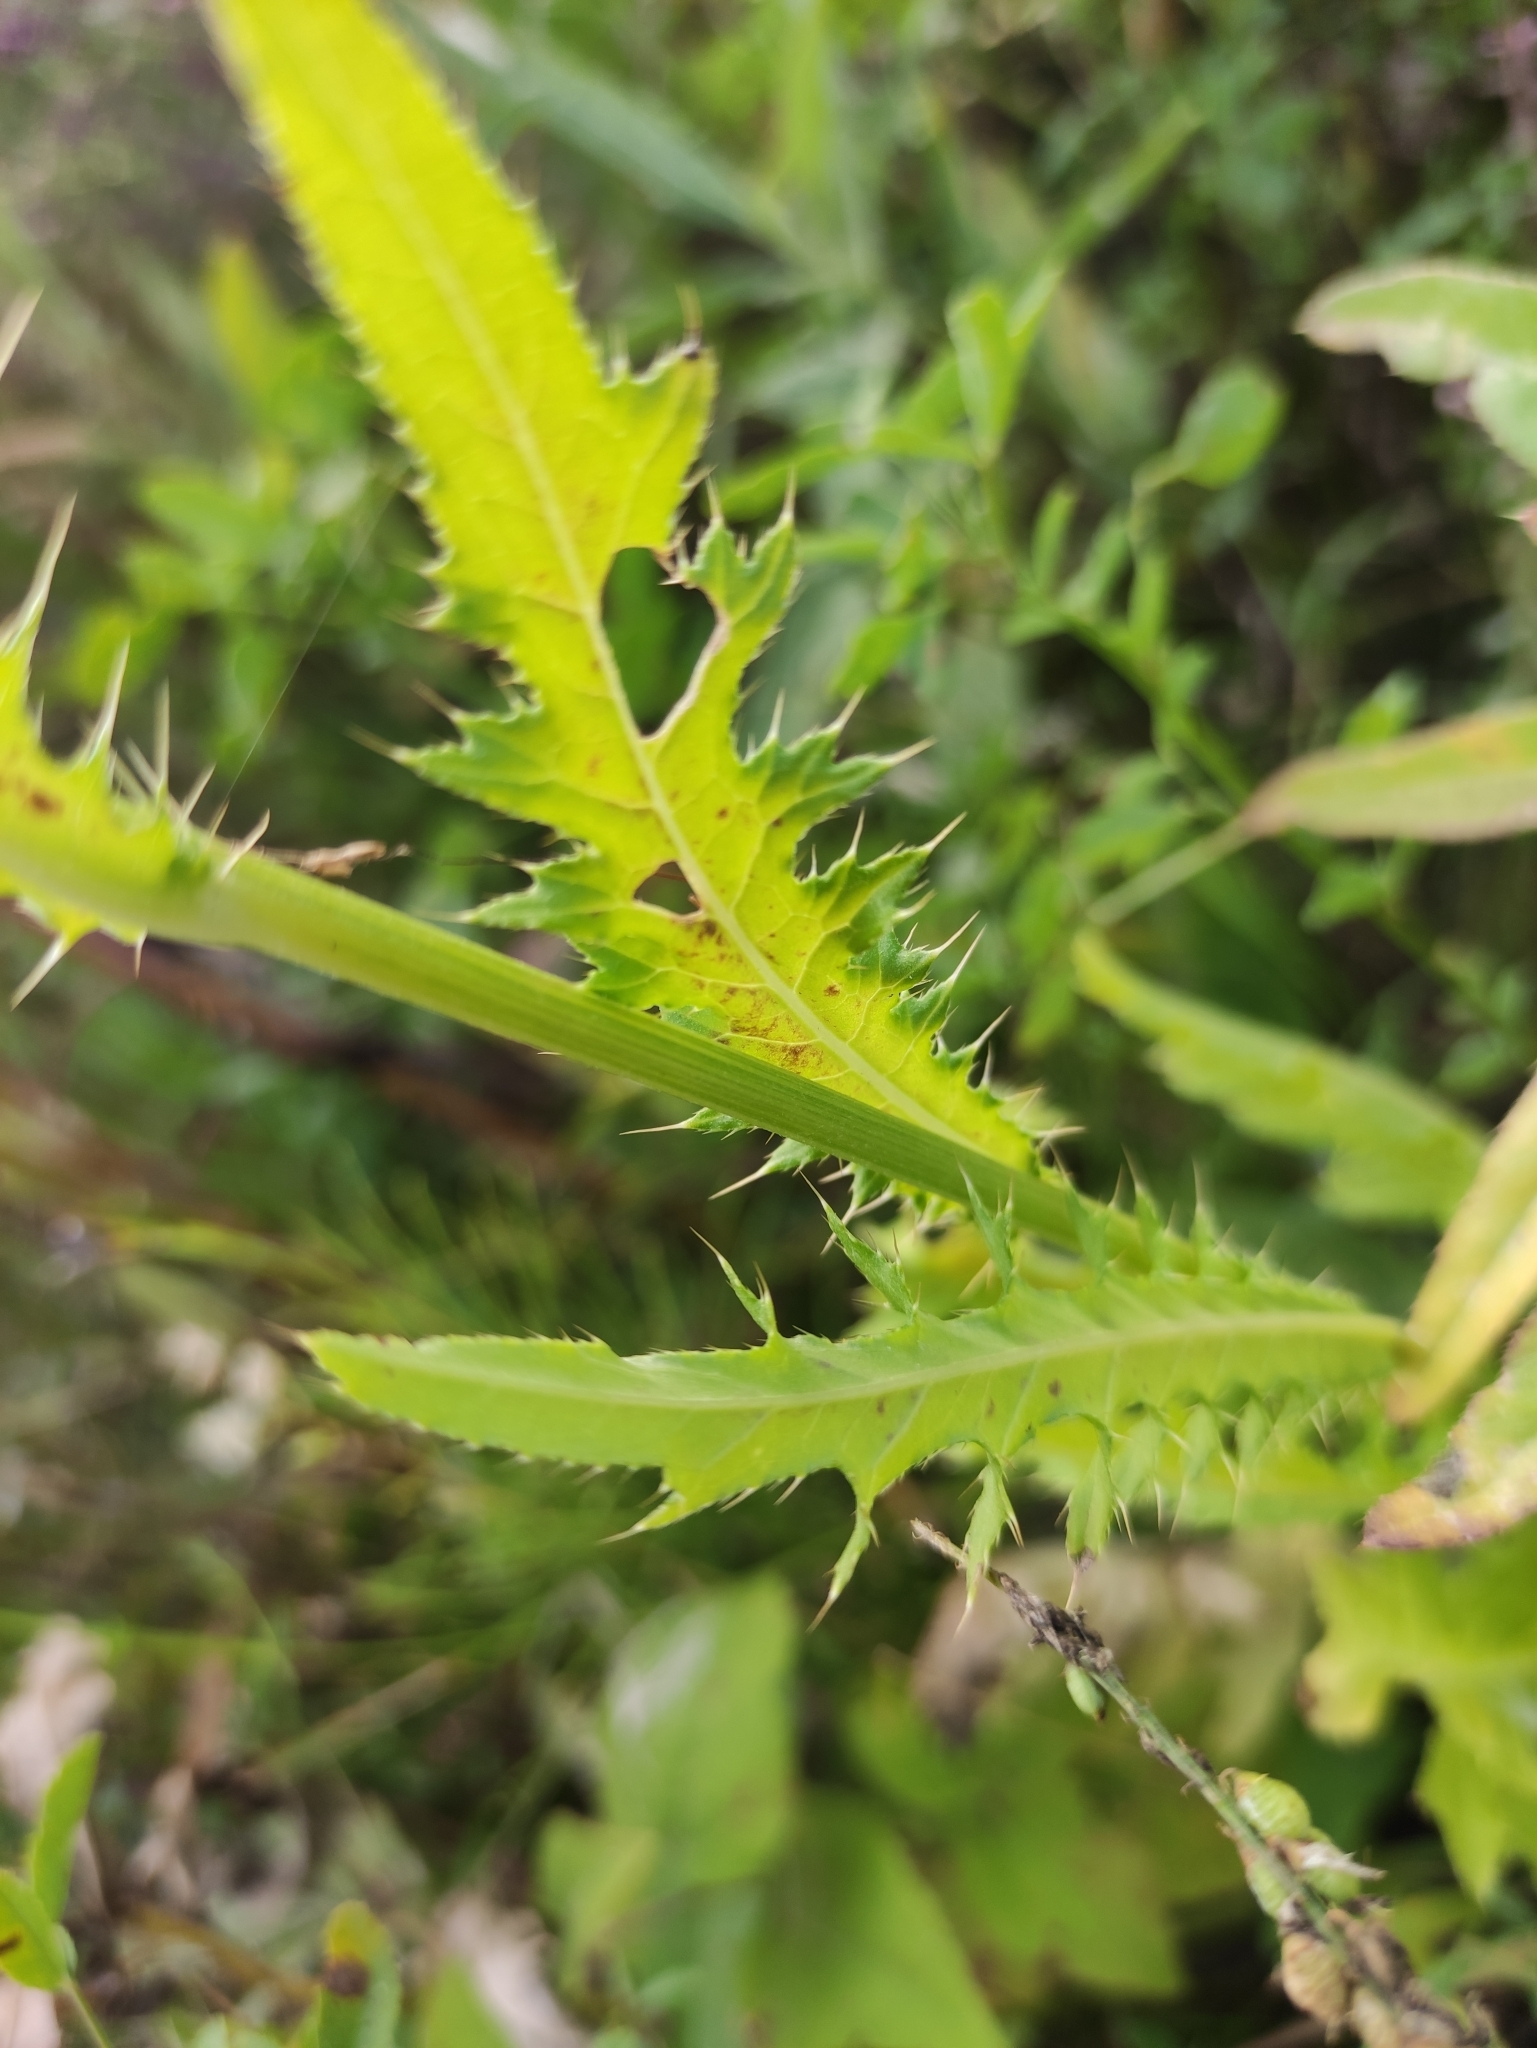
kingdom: Plantae
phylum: Tracheophyta
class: Magnoliopsida
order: Asterales
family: Asteraceae
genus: Cirsium
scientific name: Cirsium pendulum
